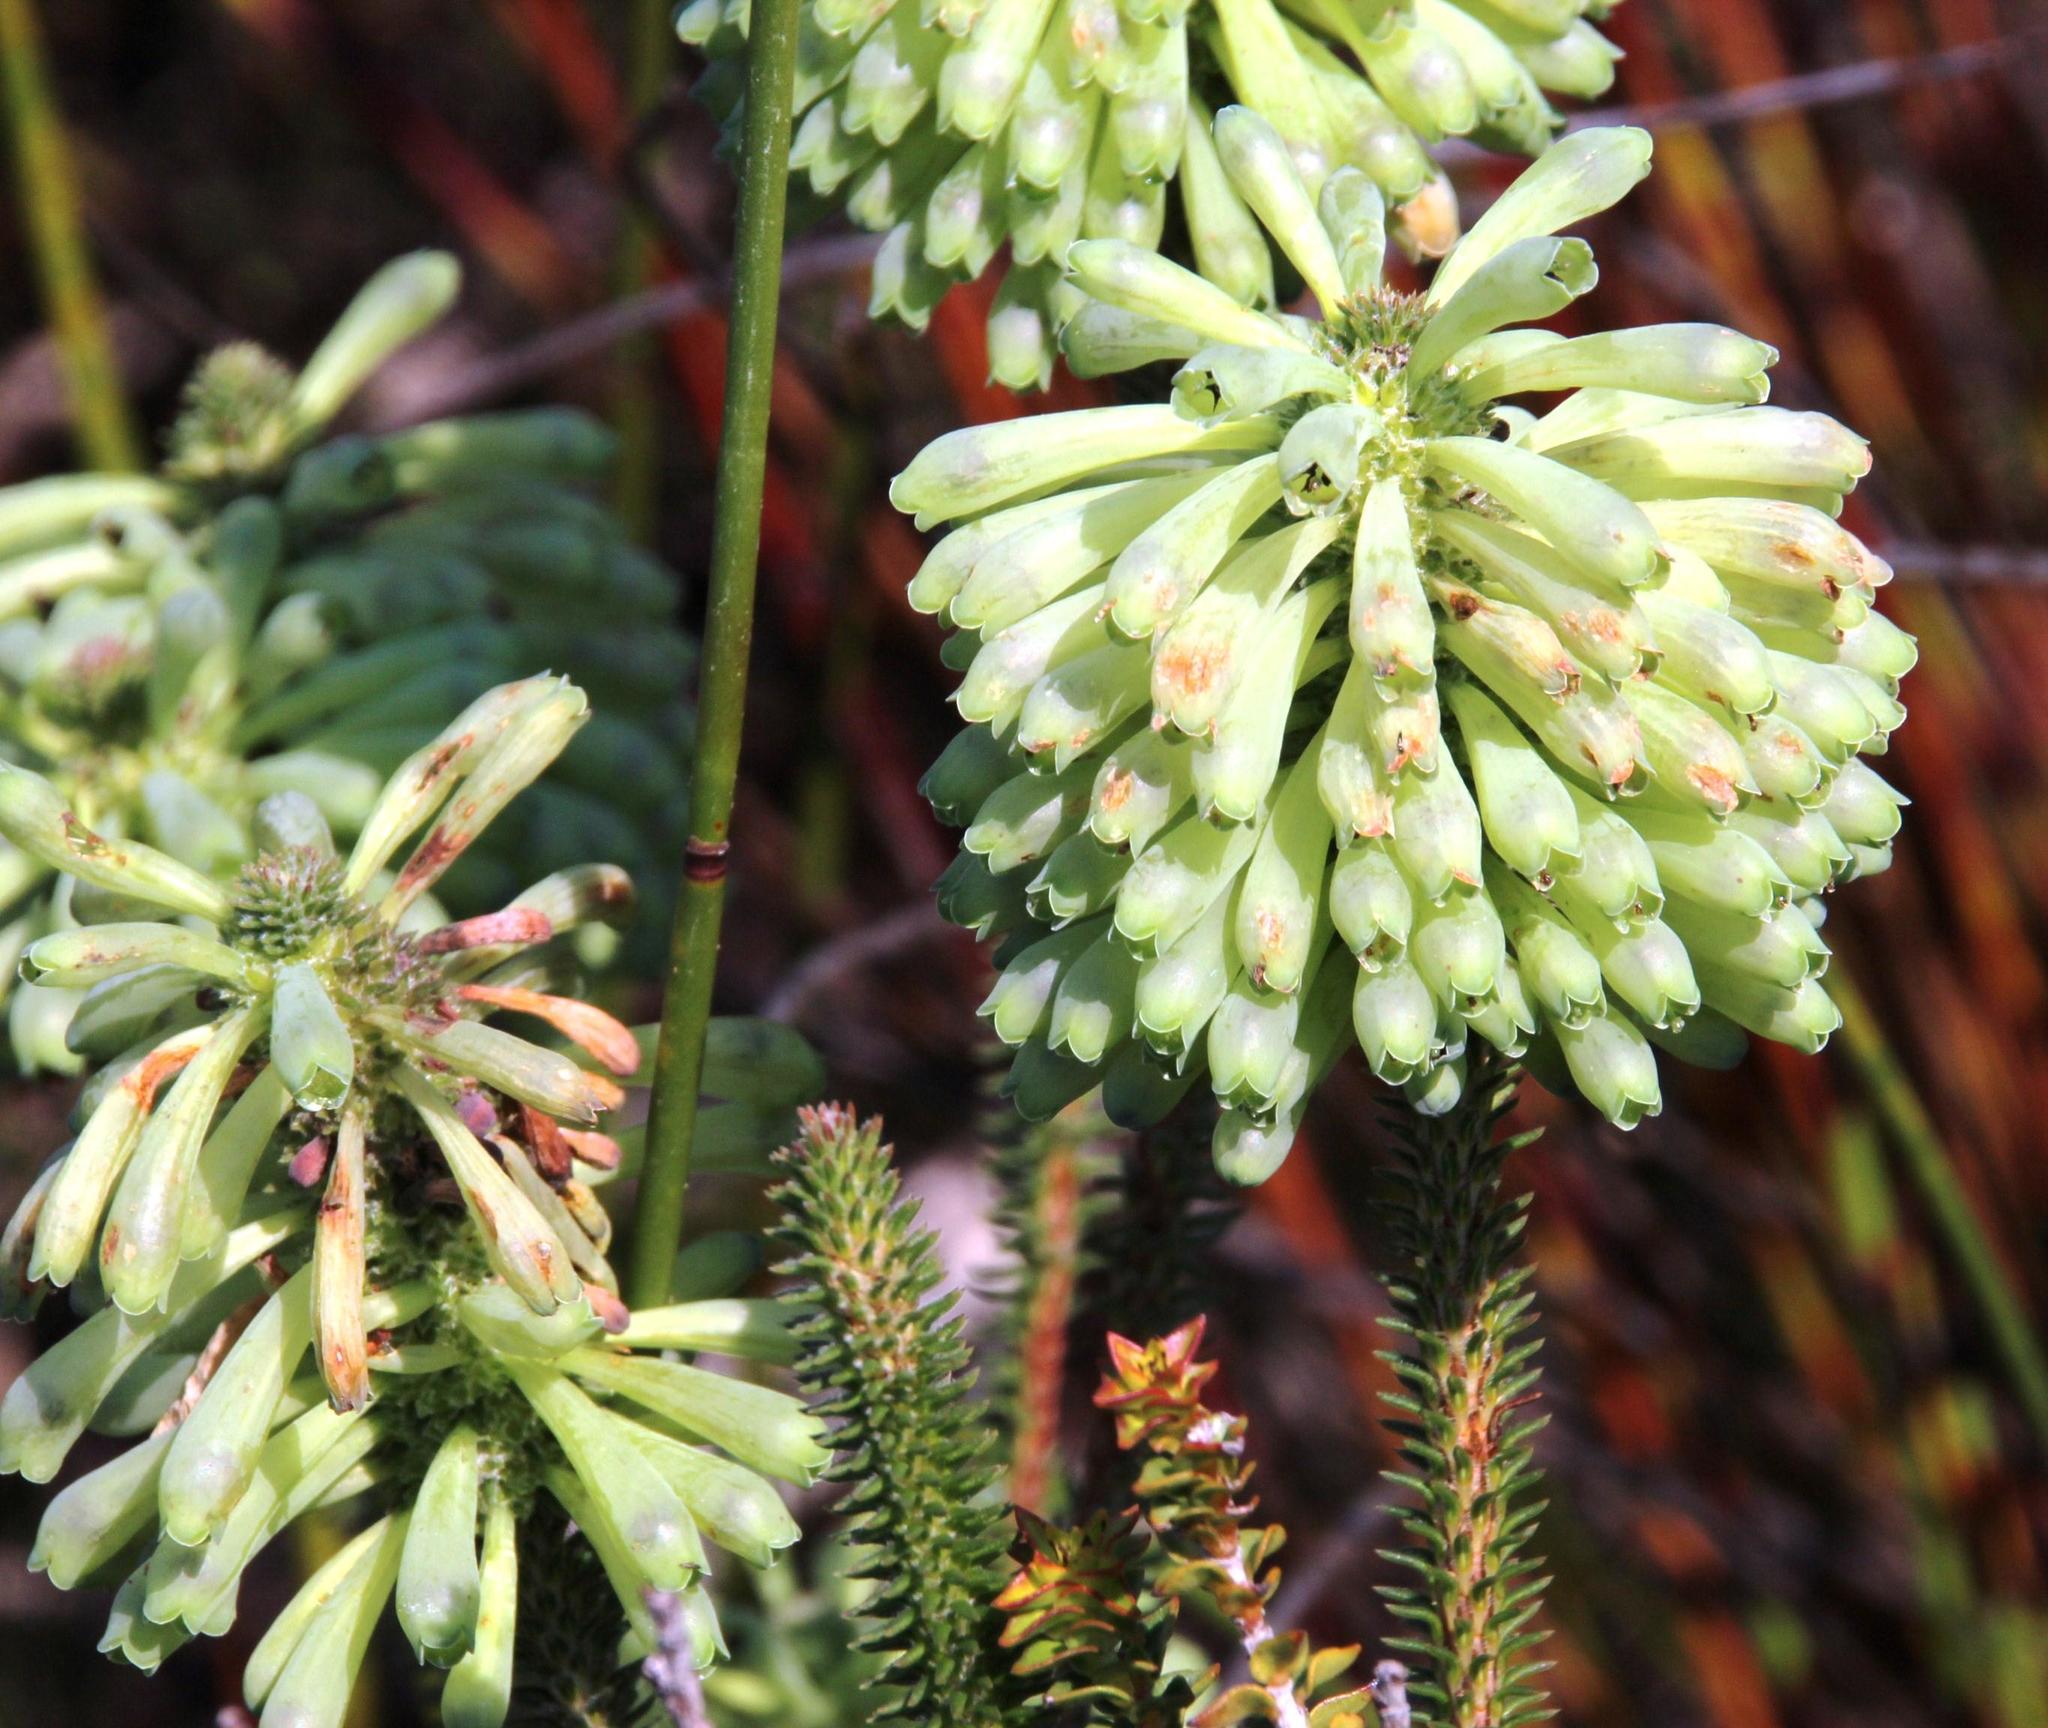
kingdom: Plantae
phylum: Tracheophyta
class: Magnoliopsida
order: Ericales
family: Ericaceae
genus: Erica
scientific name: Erica sessiliflora
